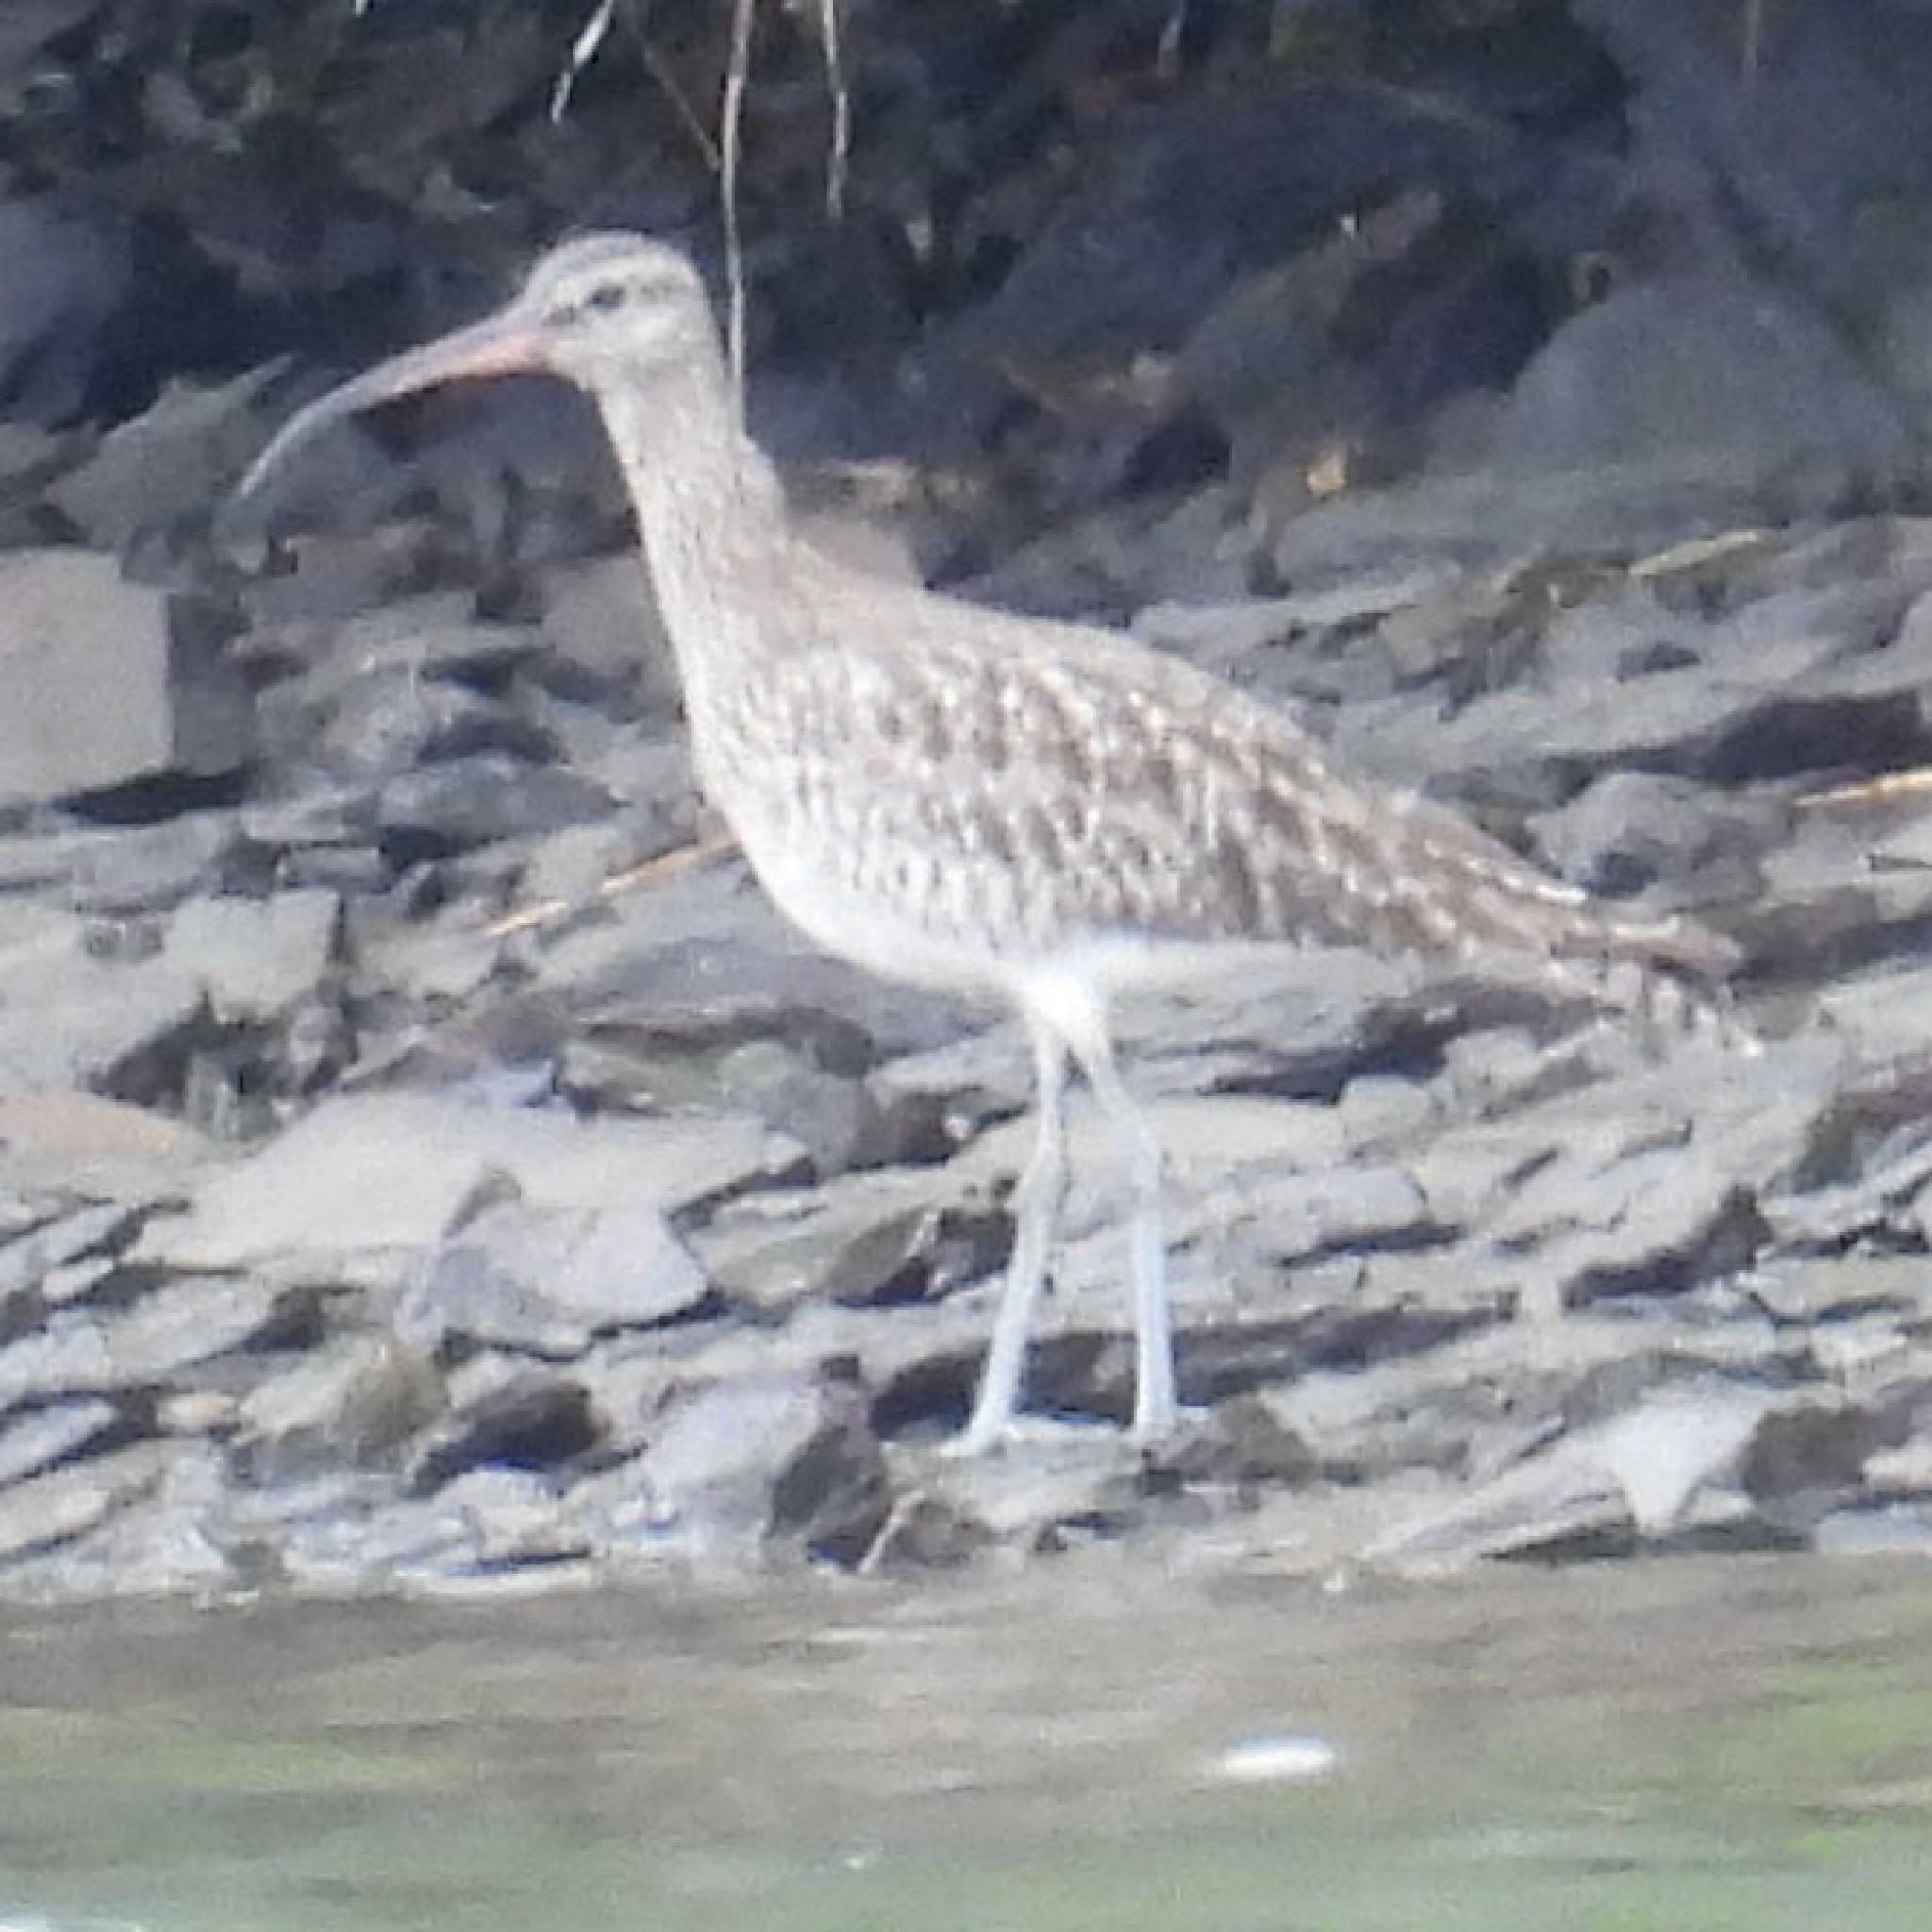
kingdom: Animalia
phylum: Chordata
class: Aves
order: Charadriiformes
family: Scolopacidae
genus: Numenius
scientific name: Numenius phaeopus
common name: Whimbrel
